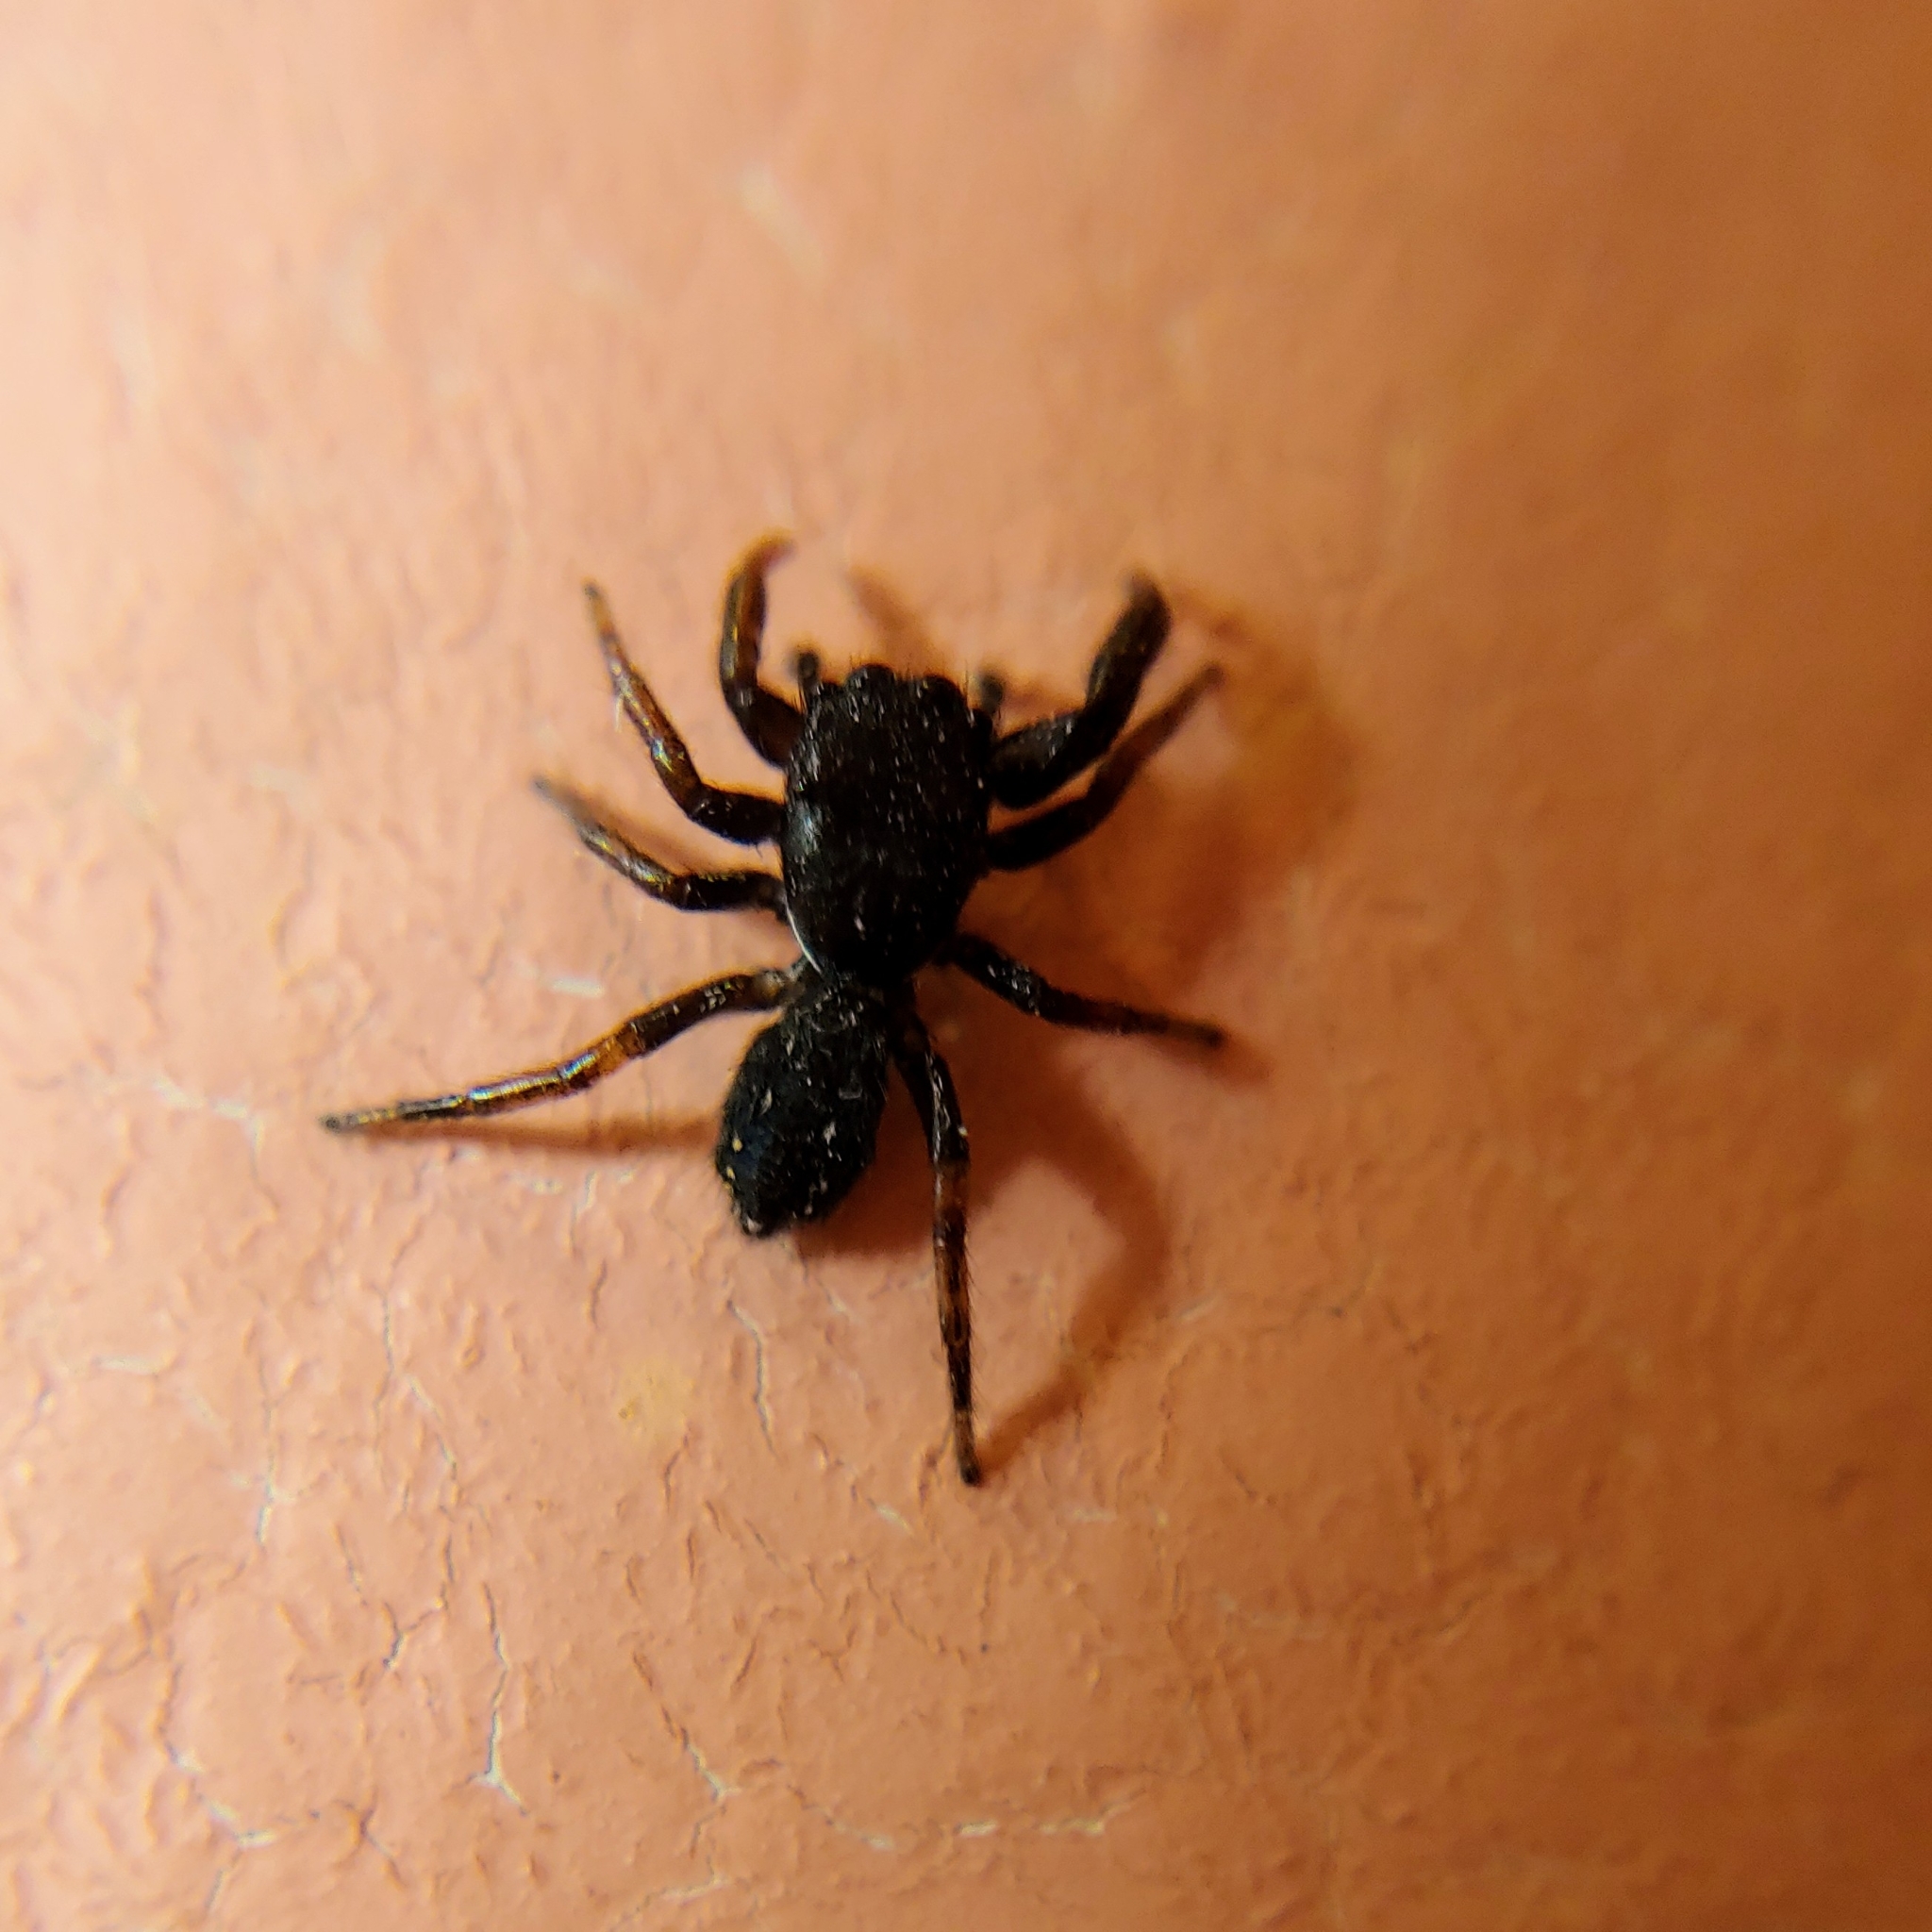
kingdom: Animalia
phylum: Arthropoda
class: Arachnida
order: Araneae
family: Salticidae
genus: Metacyrba
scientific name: Metacyrba taeniola
